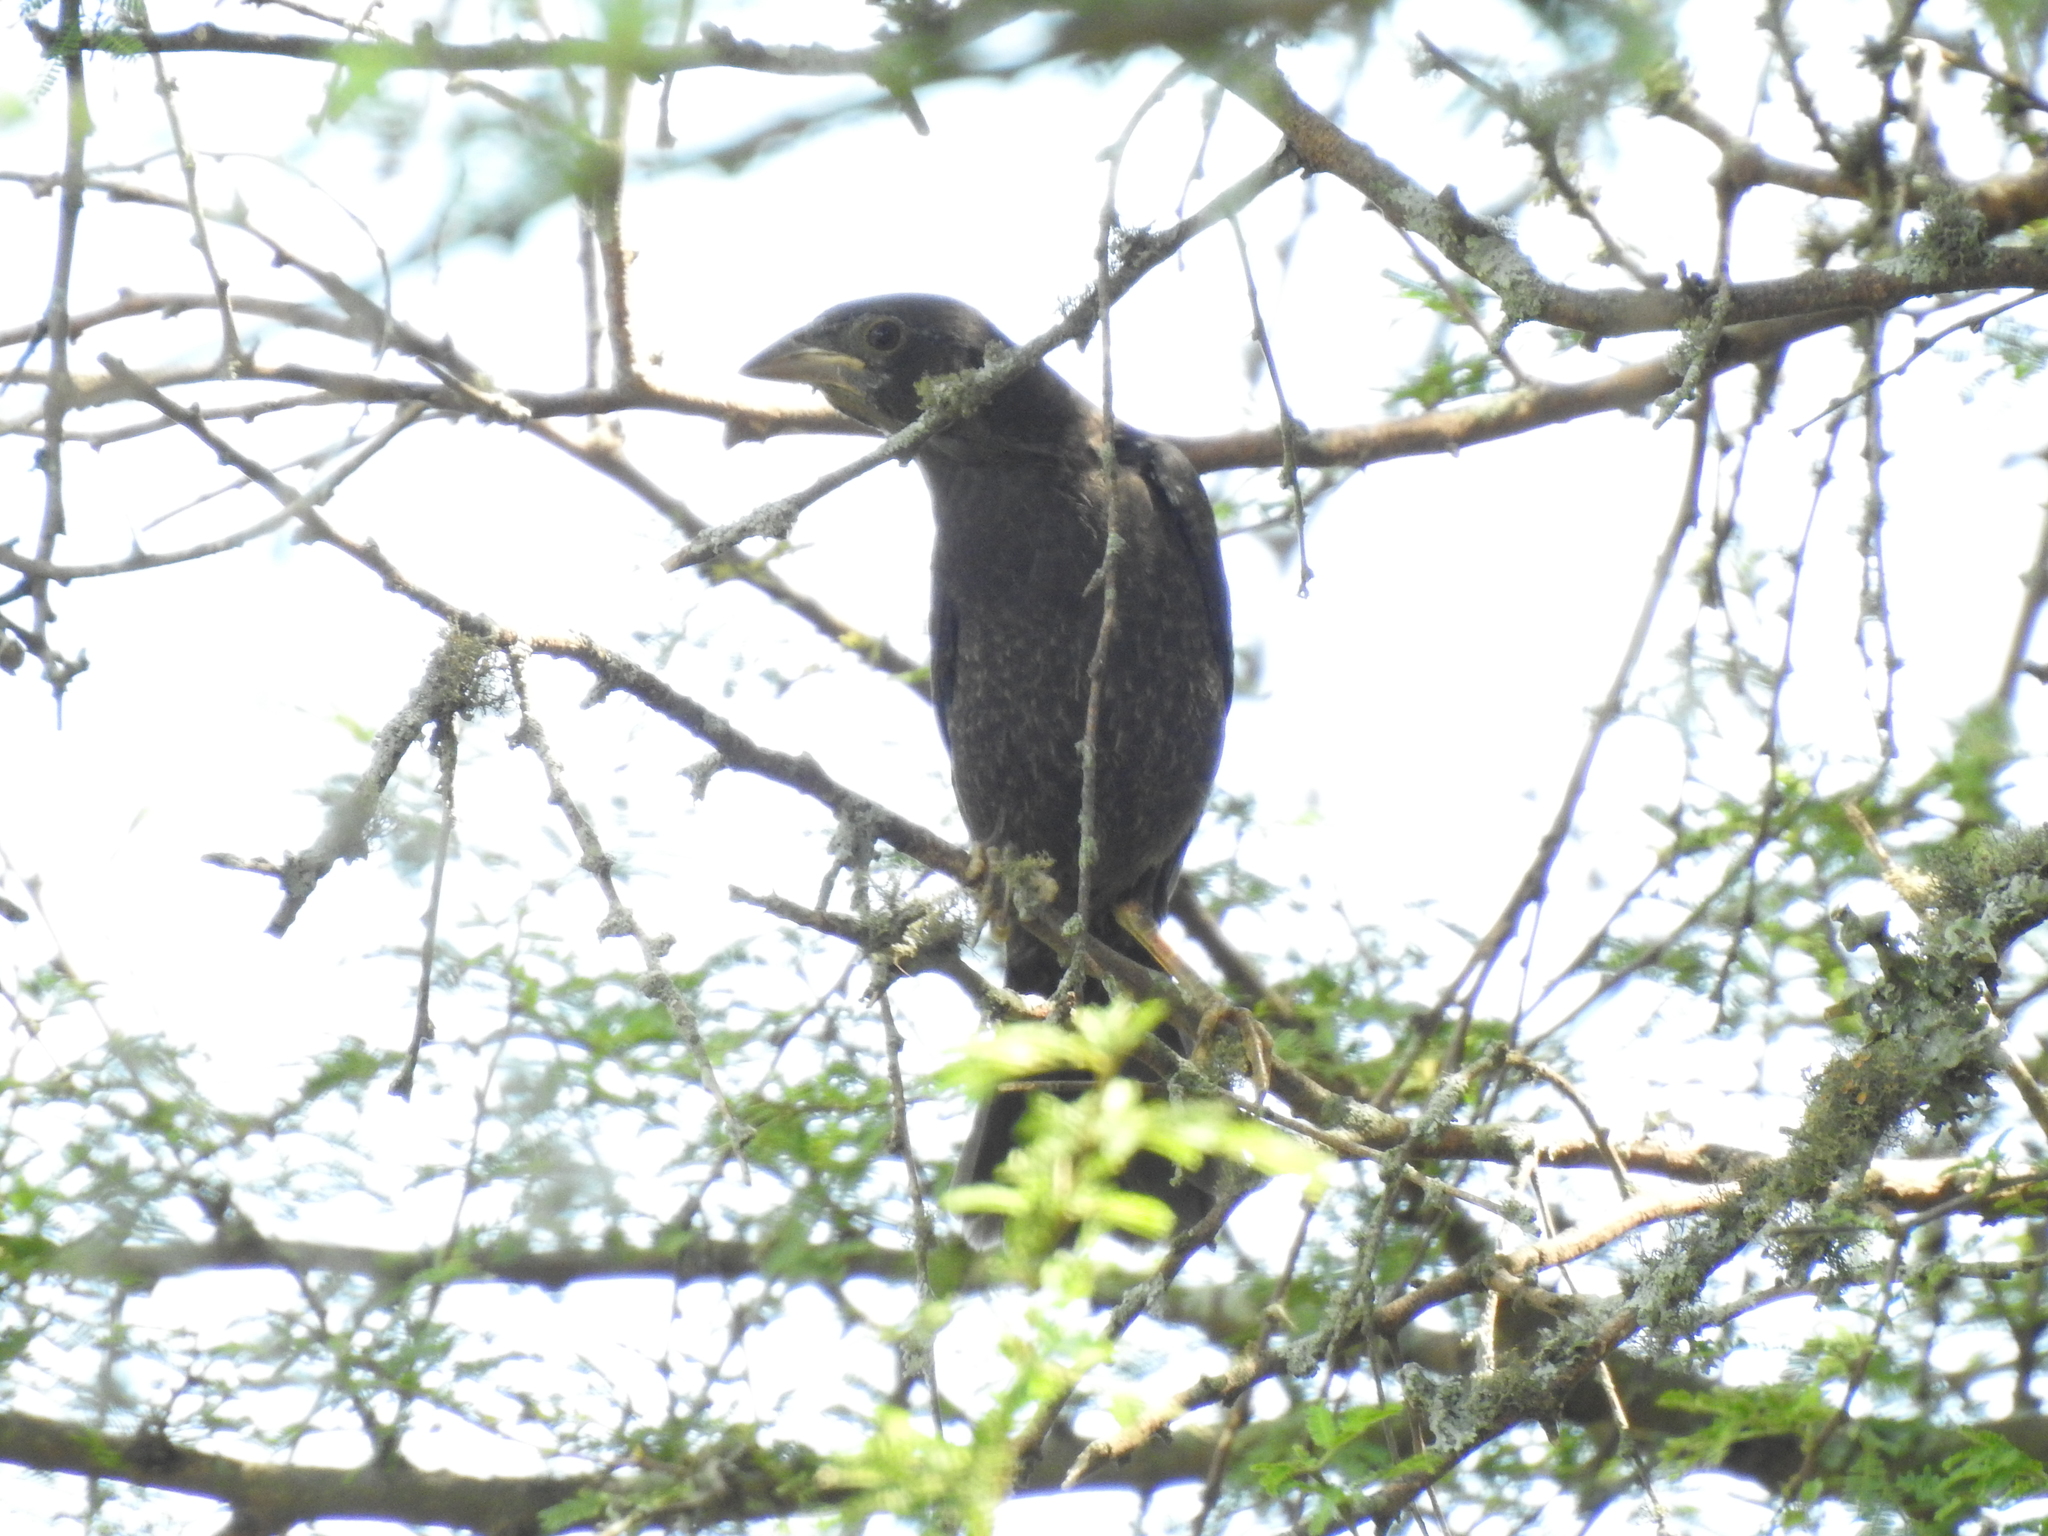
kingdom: Animalia
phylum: Chordata
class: Aves
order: Passeriformes
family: Icteridae
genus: Molothrus
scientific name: Molothrus aeneus
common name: Bronzed cowbird
